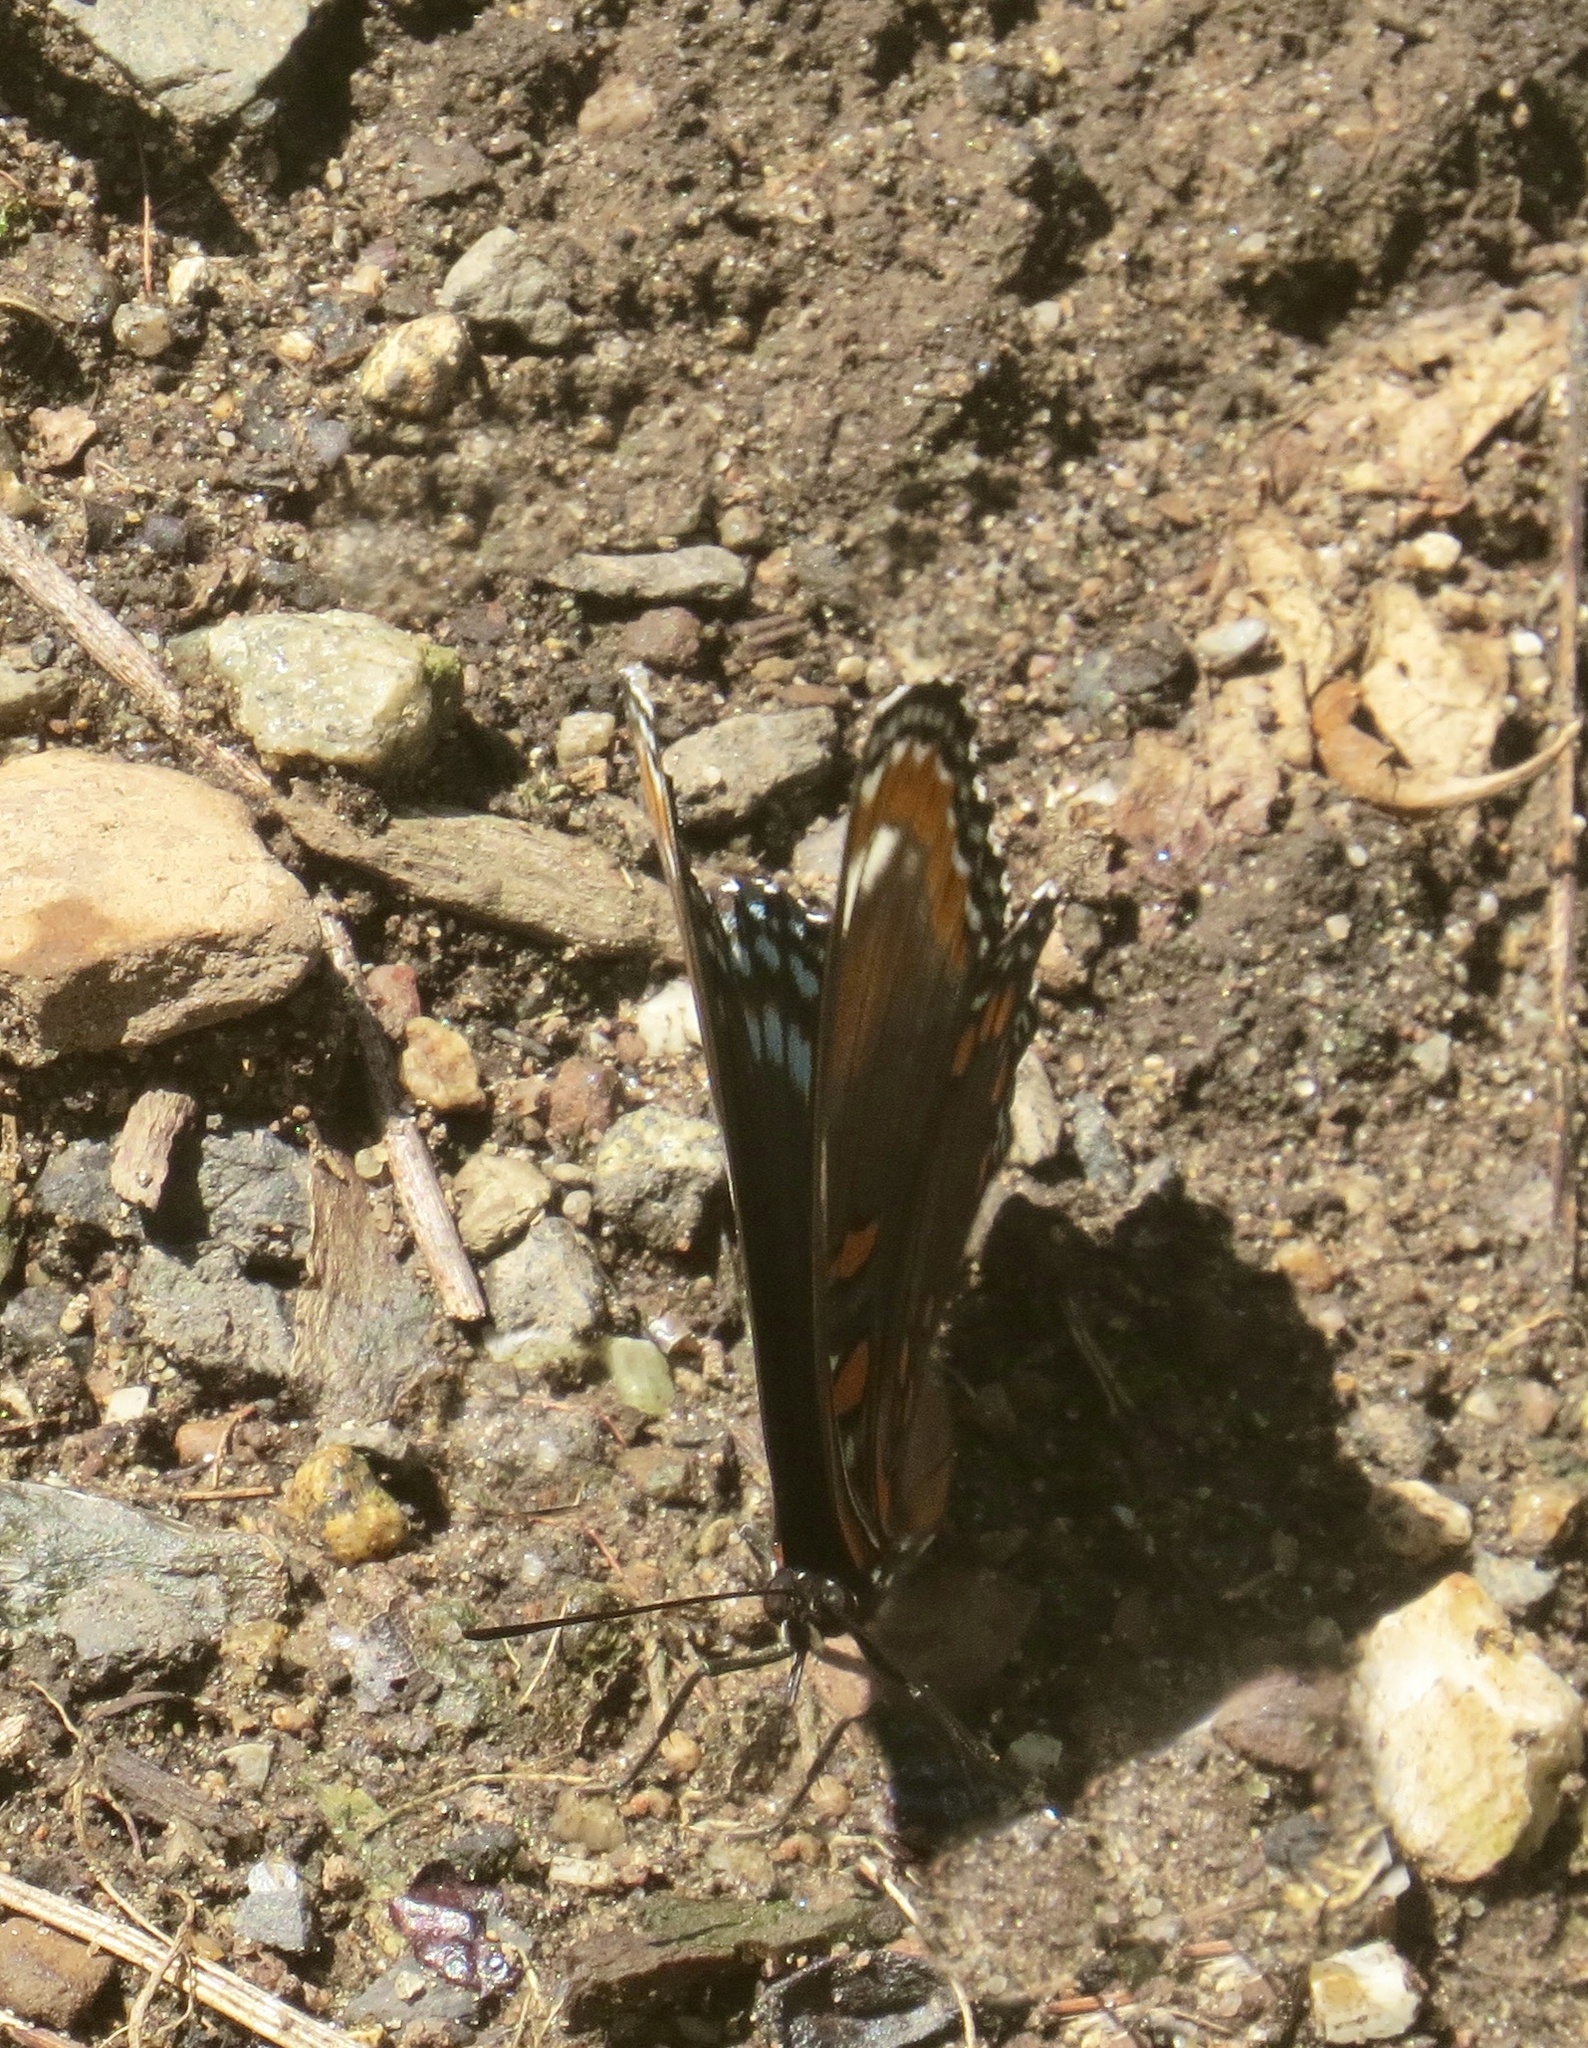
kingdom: Animalia
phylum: Arthropoda
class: Insecta
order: Lepidoptera
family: Nymphalidae
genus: Limenitis
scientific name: Limenitis arthemis
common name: Red-spotted admiral
